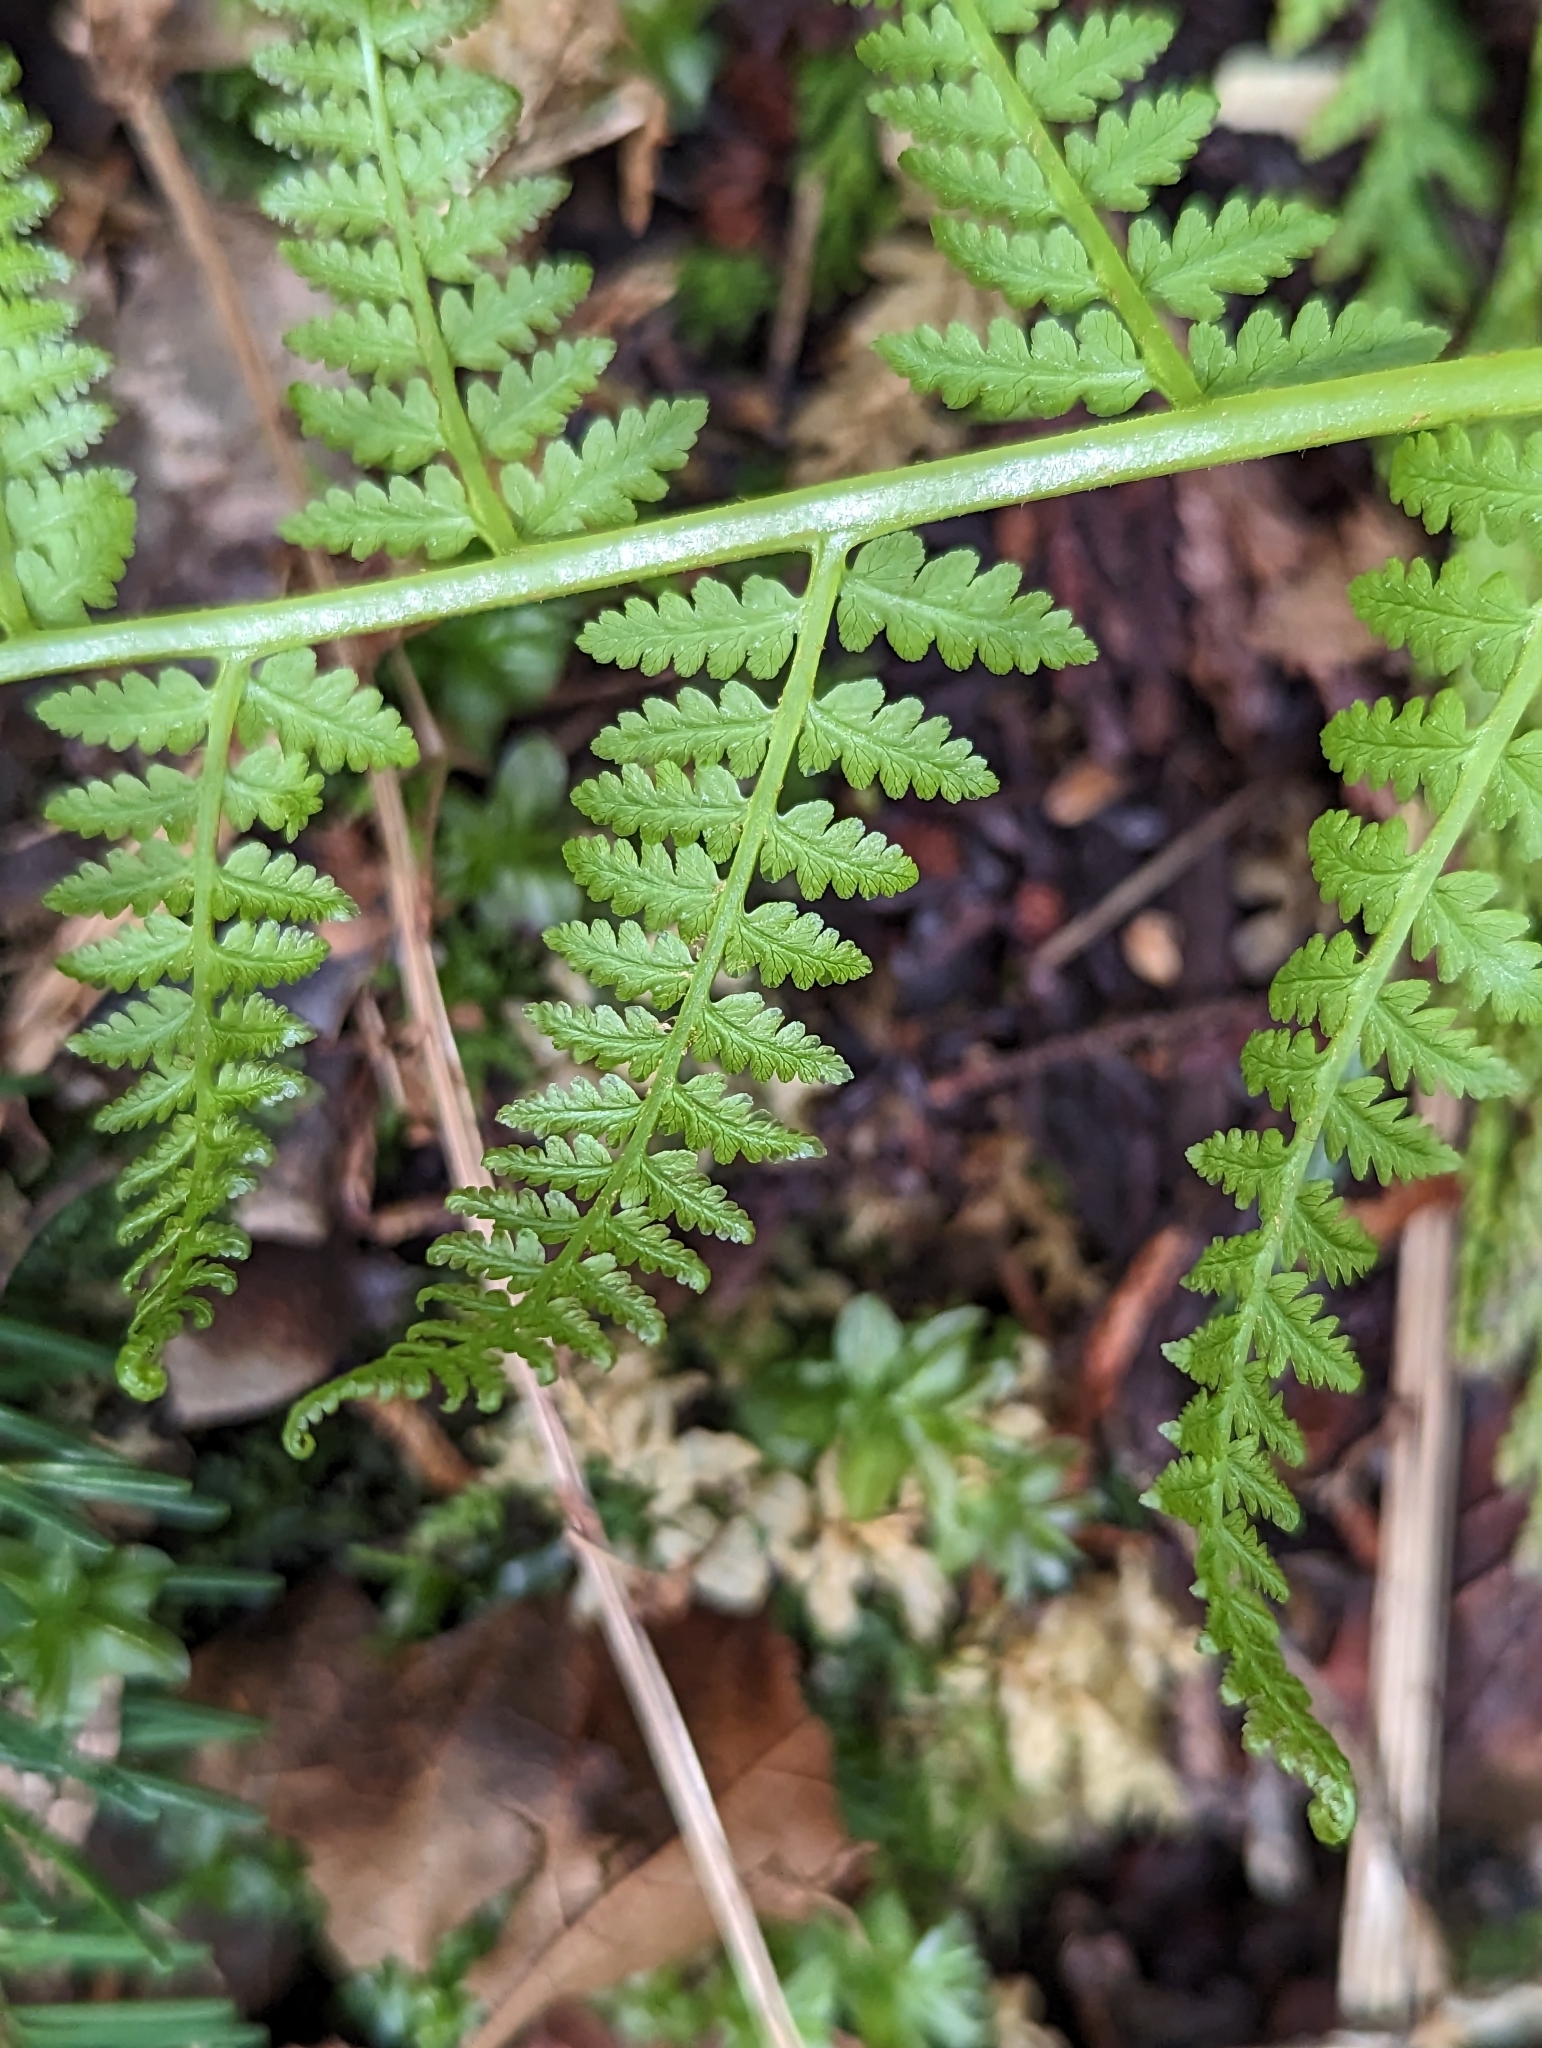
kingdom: Plantae
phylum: Tracheophyta
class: Polypodiopsida
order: Polypodiales
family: Athyriaceae
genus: Athyrium
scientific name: Athyrium filix-femina
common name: Lady fern
